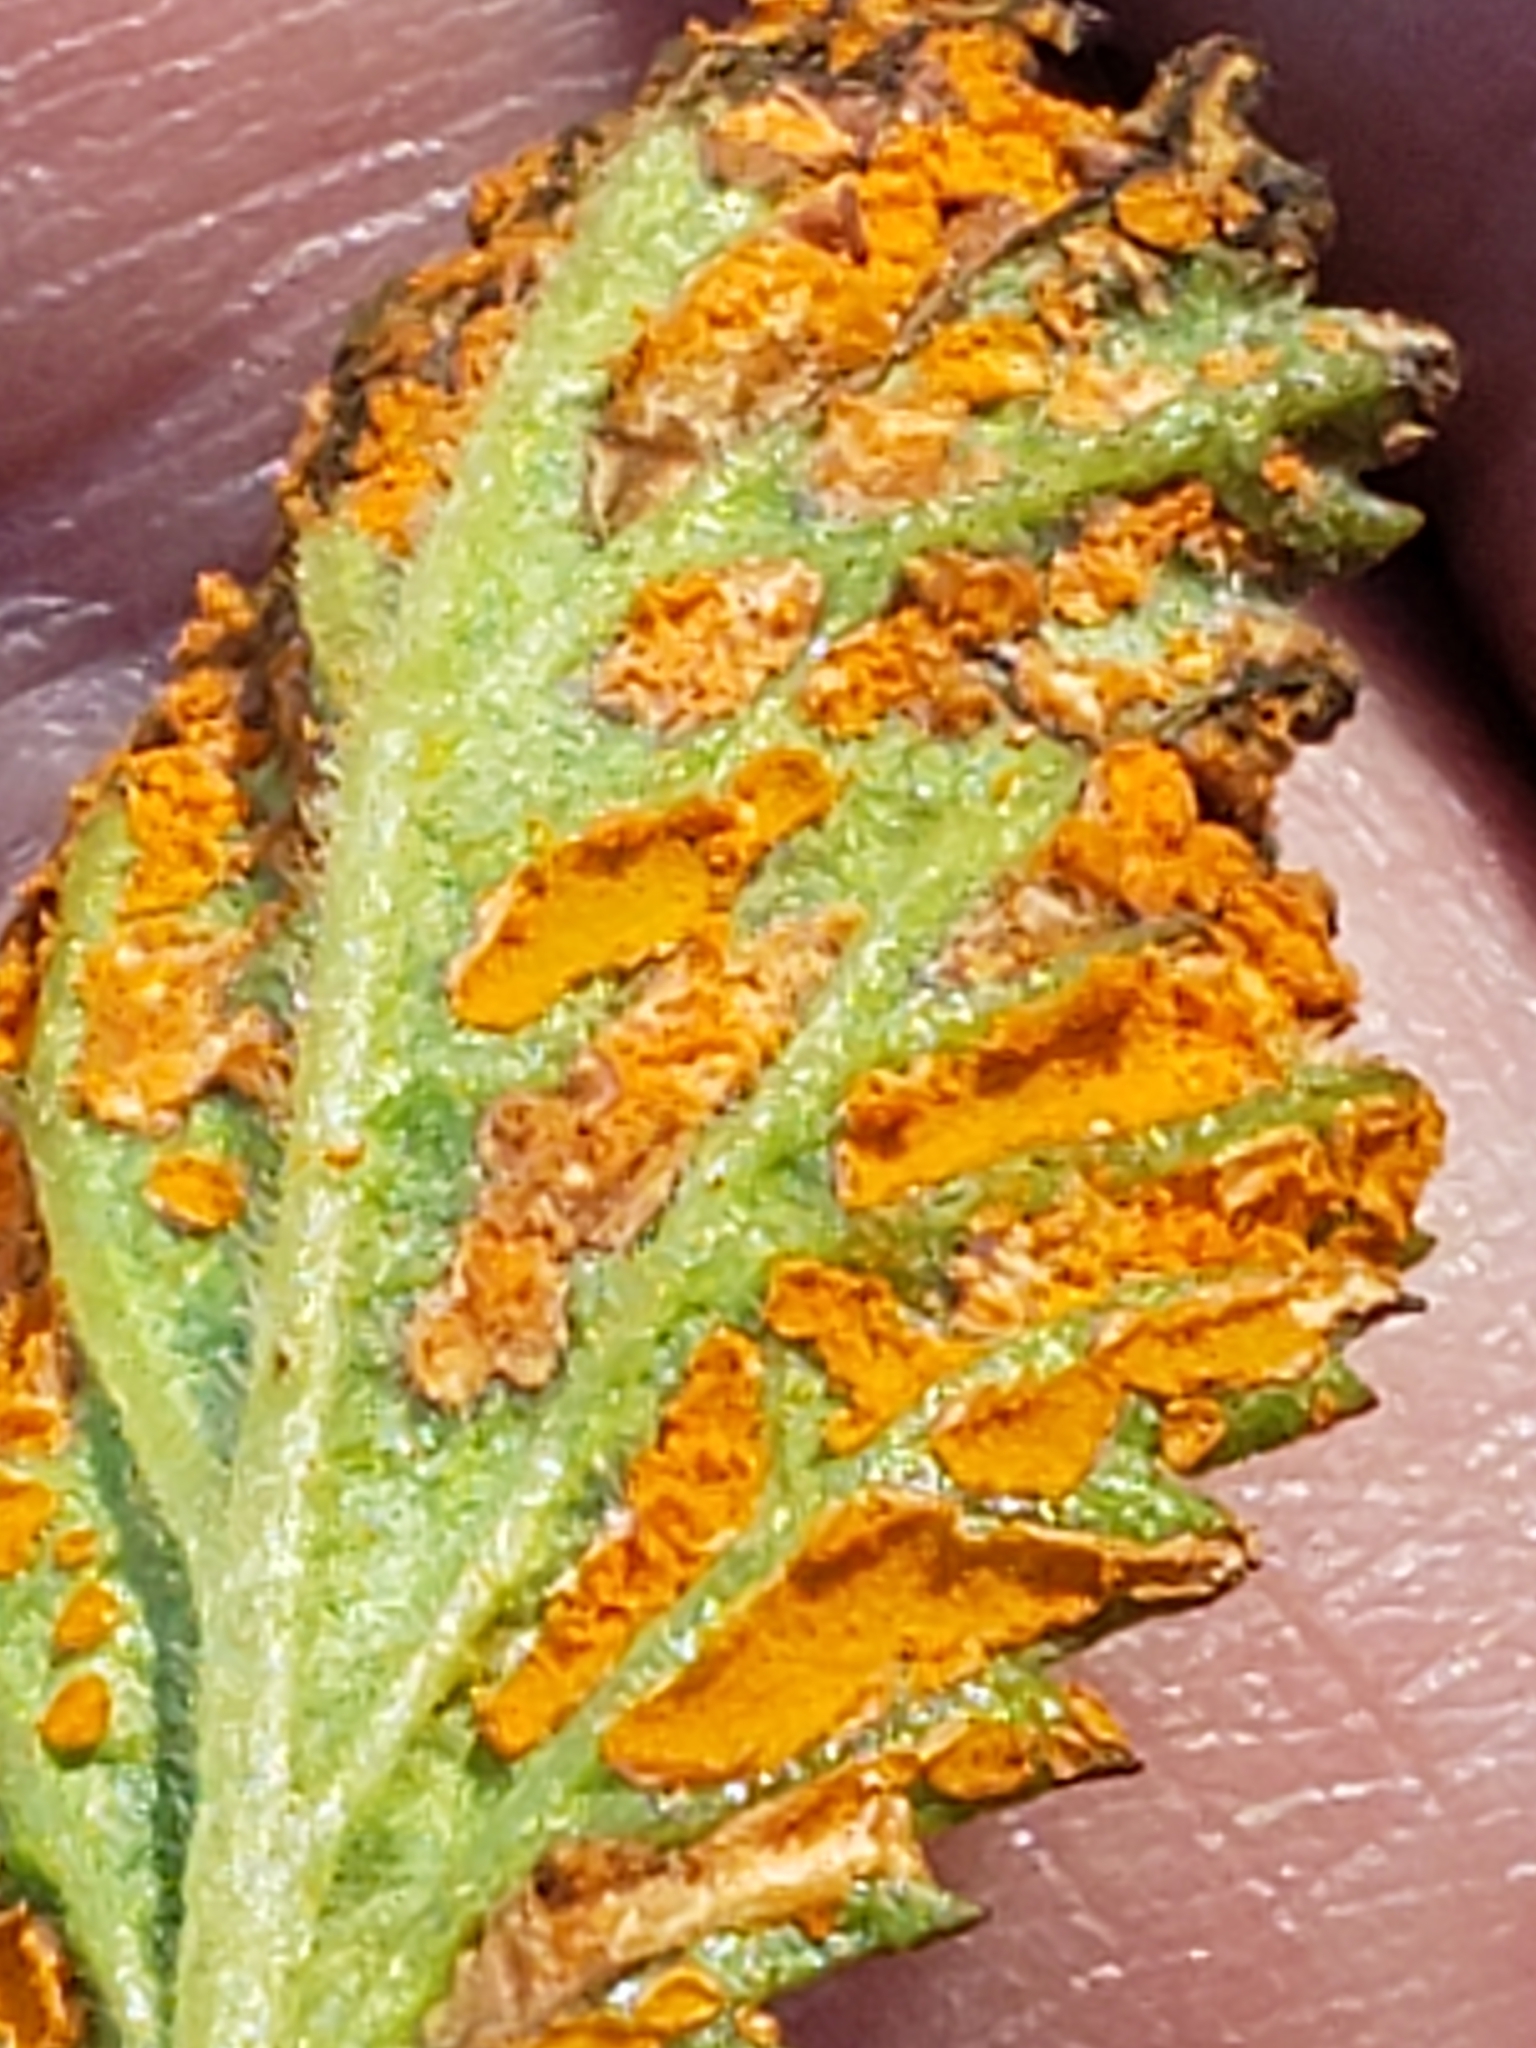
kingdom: Fungi
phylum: Basidiomycota
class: Pucciniomycetes
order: Pucciniales
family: Phragmidiaceae
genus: Arthuriomyces
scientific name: Arthuriomyces peckianus
